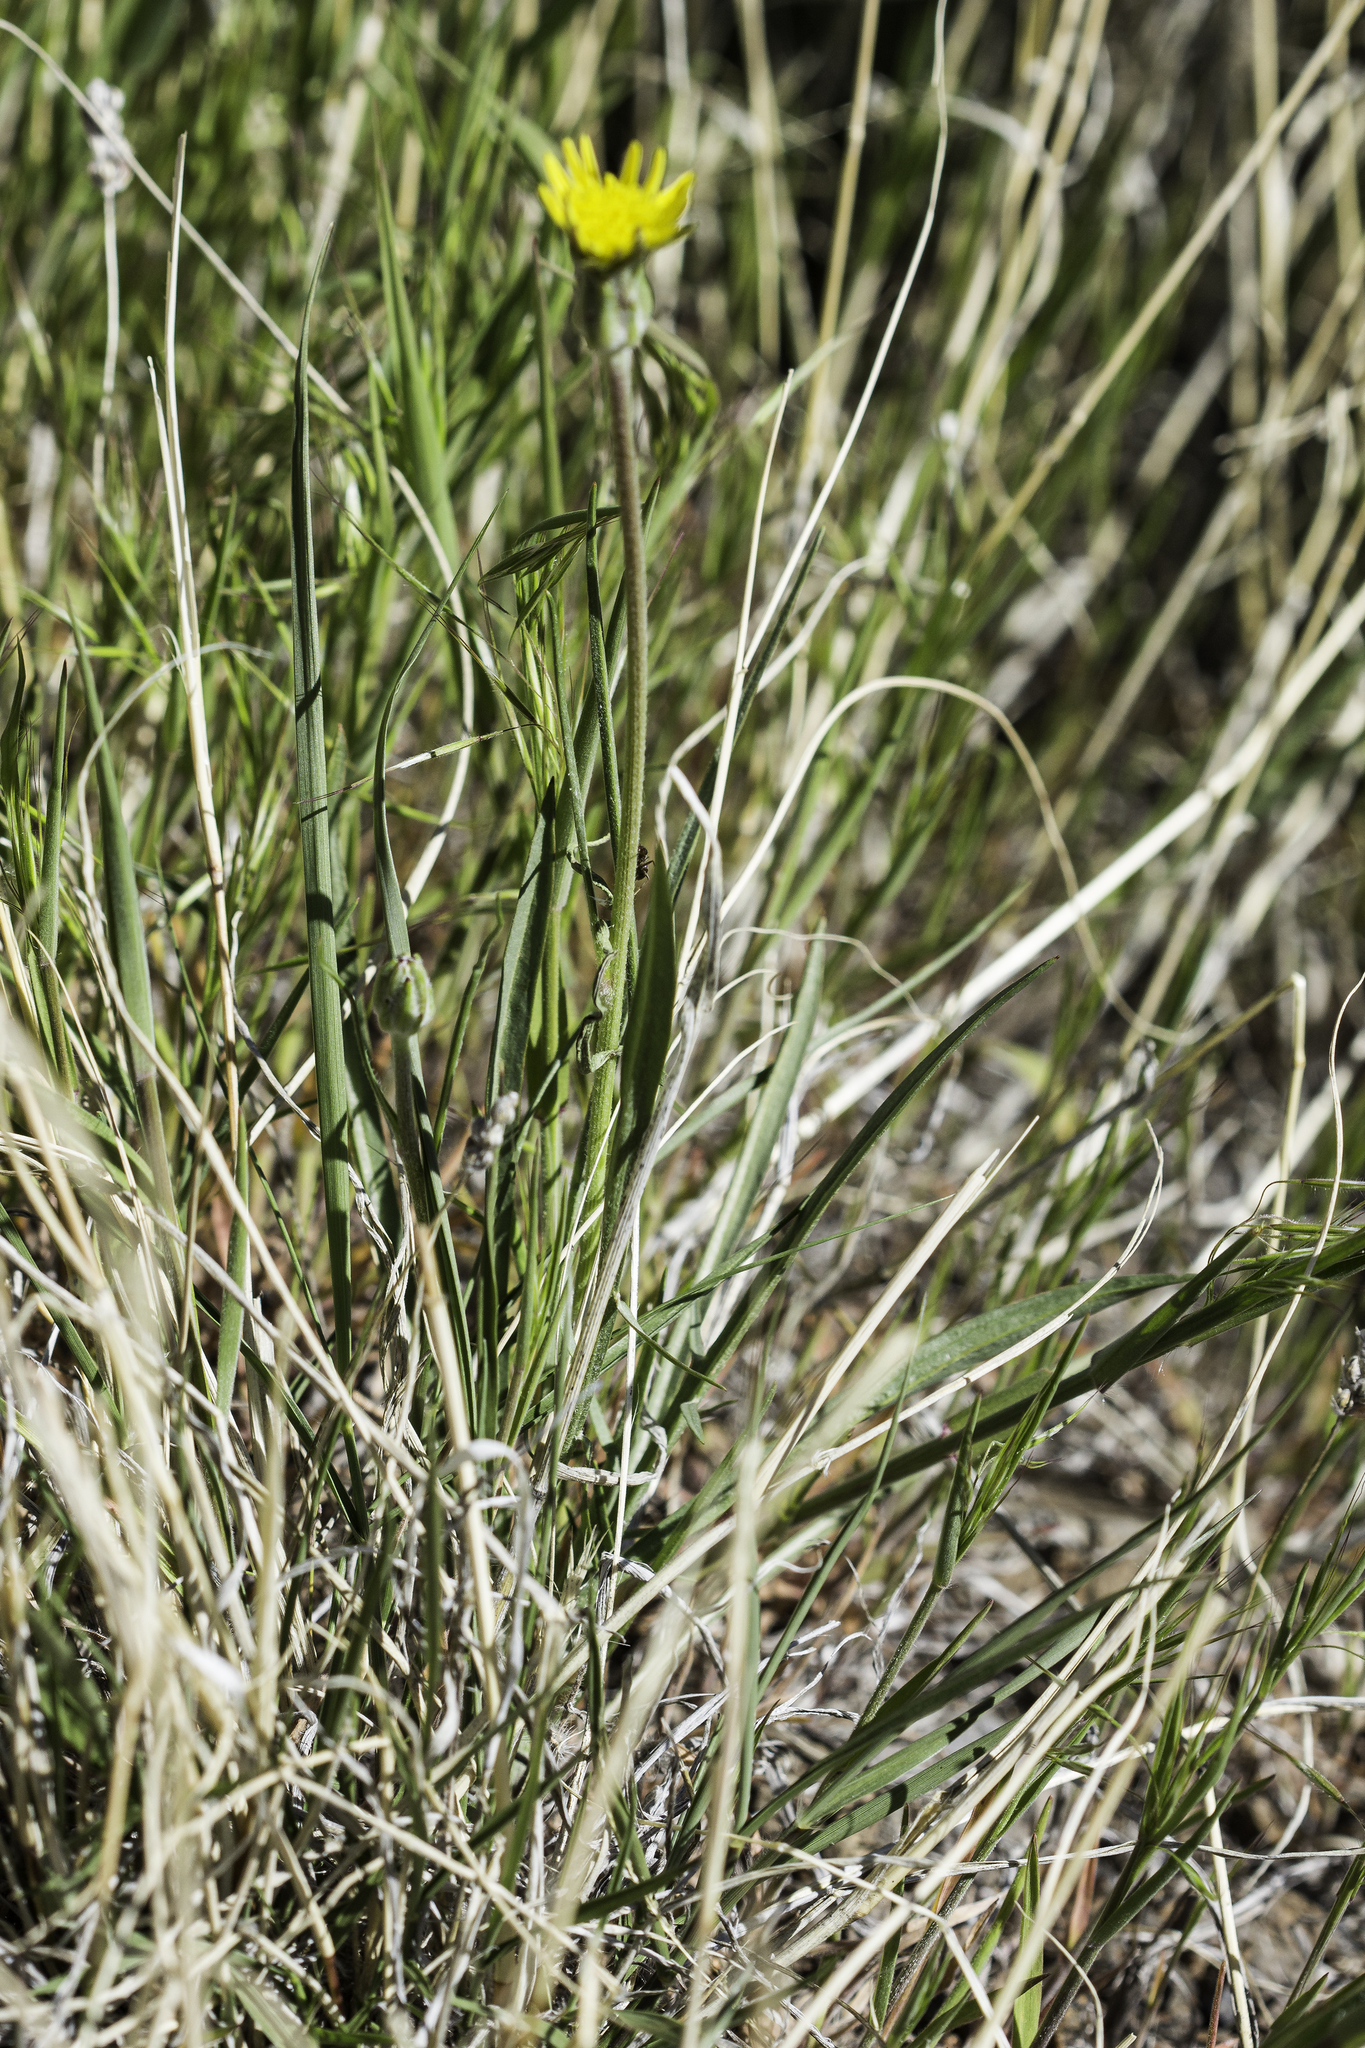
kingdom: Plantae
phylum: Tracheophyta
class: Magnoliopsida
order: Asterales
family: Asteraceae
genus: Scorzonera
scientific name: Scorzonera laciniata
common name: Cutleaf vipergrass
